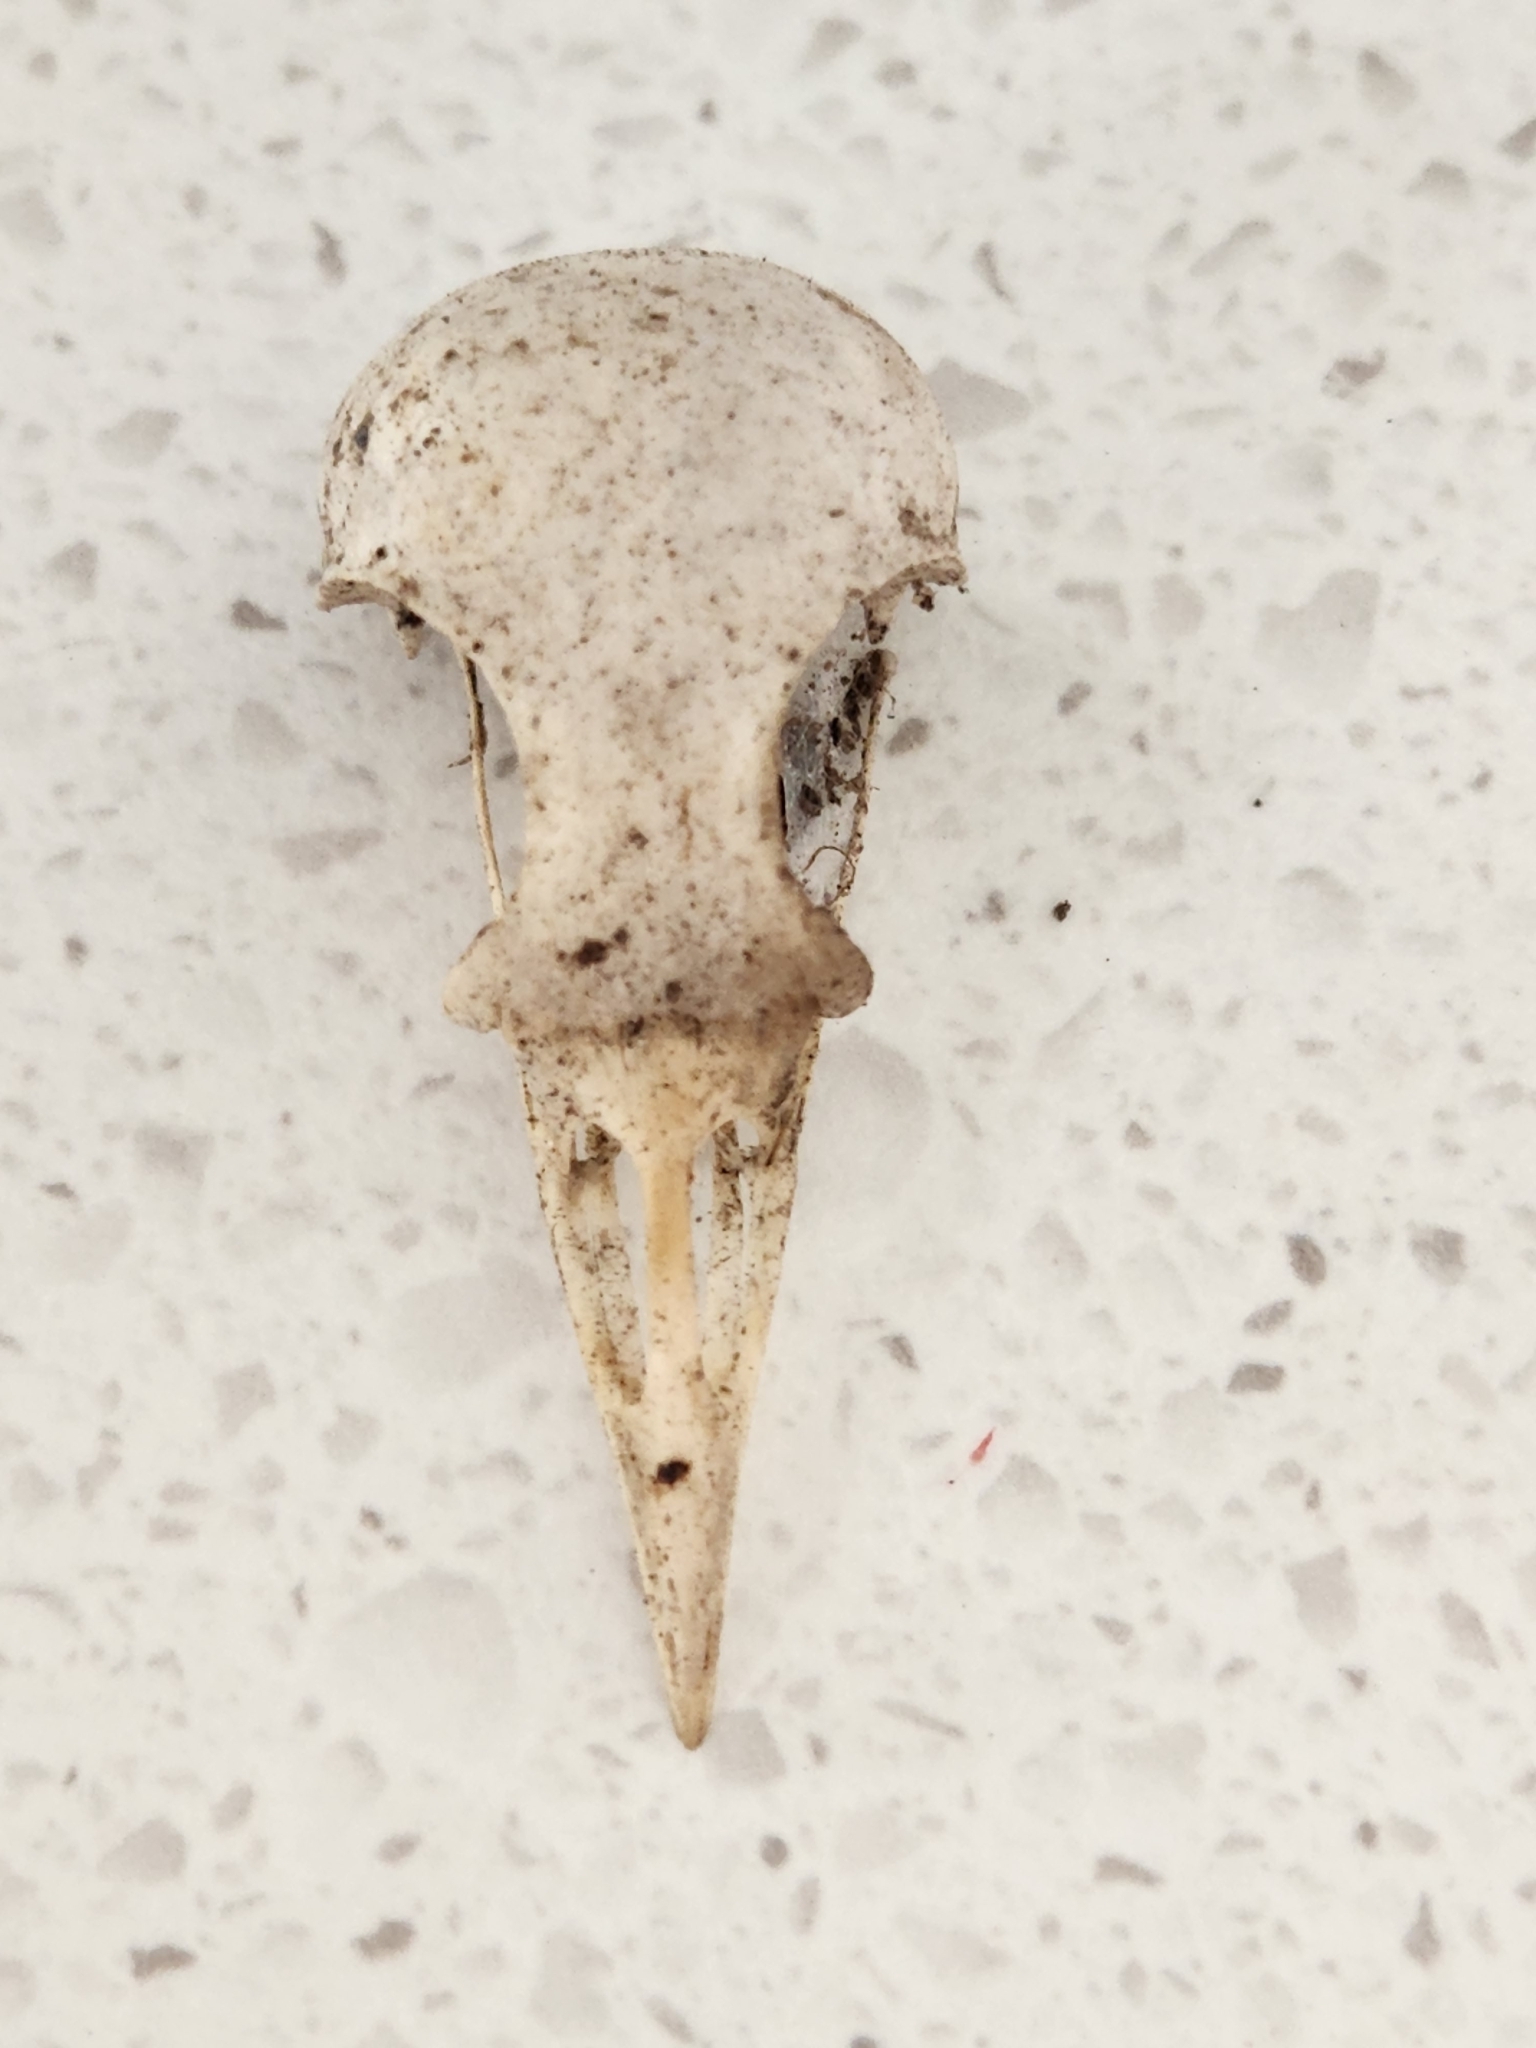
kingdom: Animalia
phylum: Chordata
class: Aves
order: Passeriformes
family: Turdidae
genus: Turdus
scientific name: Turdus merula
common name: Common blackbird
